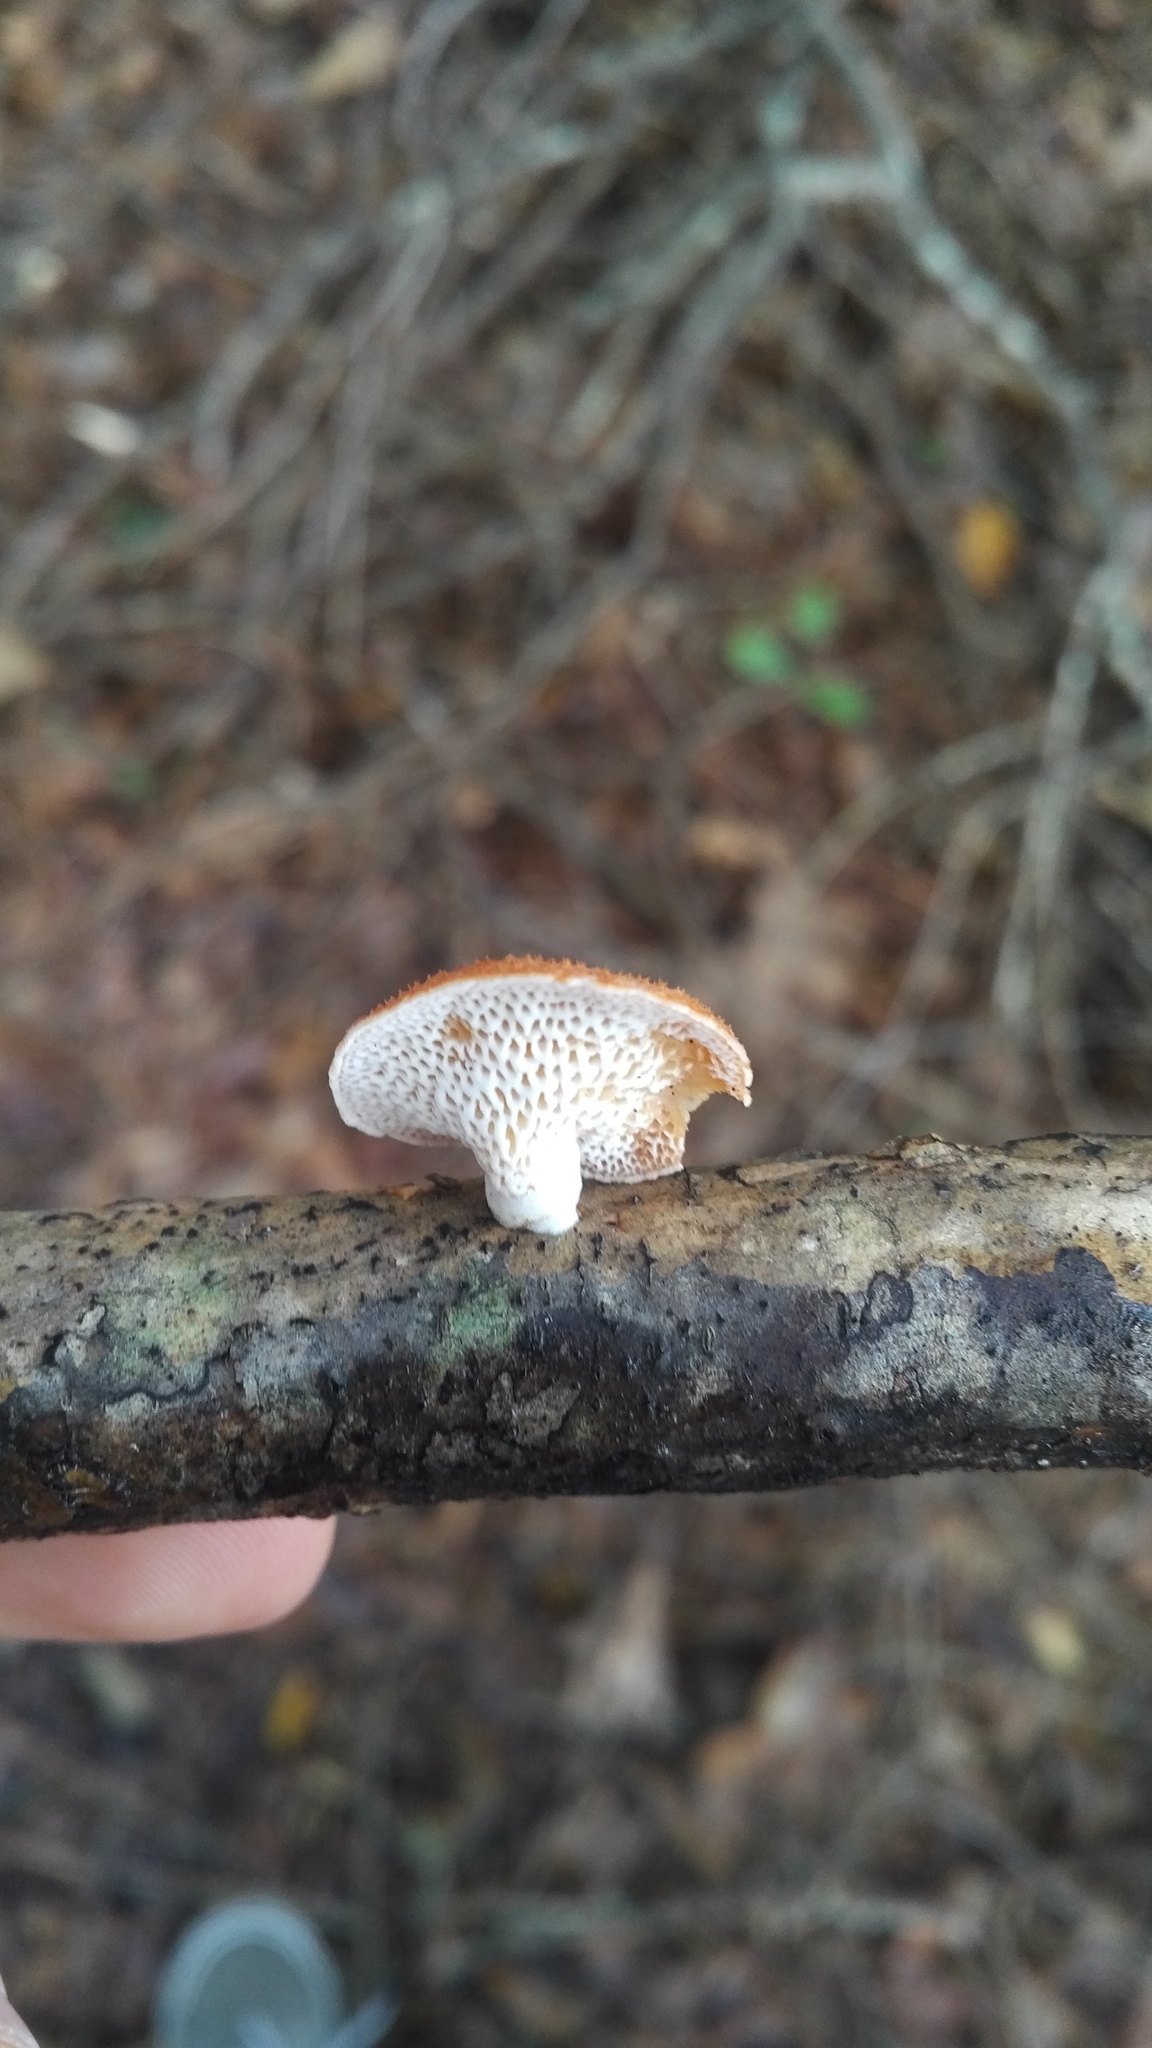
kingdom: Fungi
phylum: Basidiomycota
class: Agaricomycetes
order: Polyporales
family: Polyporaceae
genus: Neofavolus
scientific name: Neofavolus alveolaris
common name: Hexagonal-pored polypore
